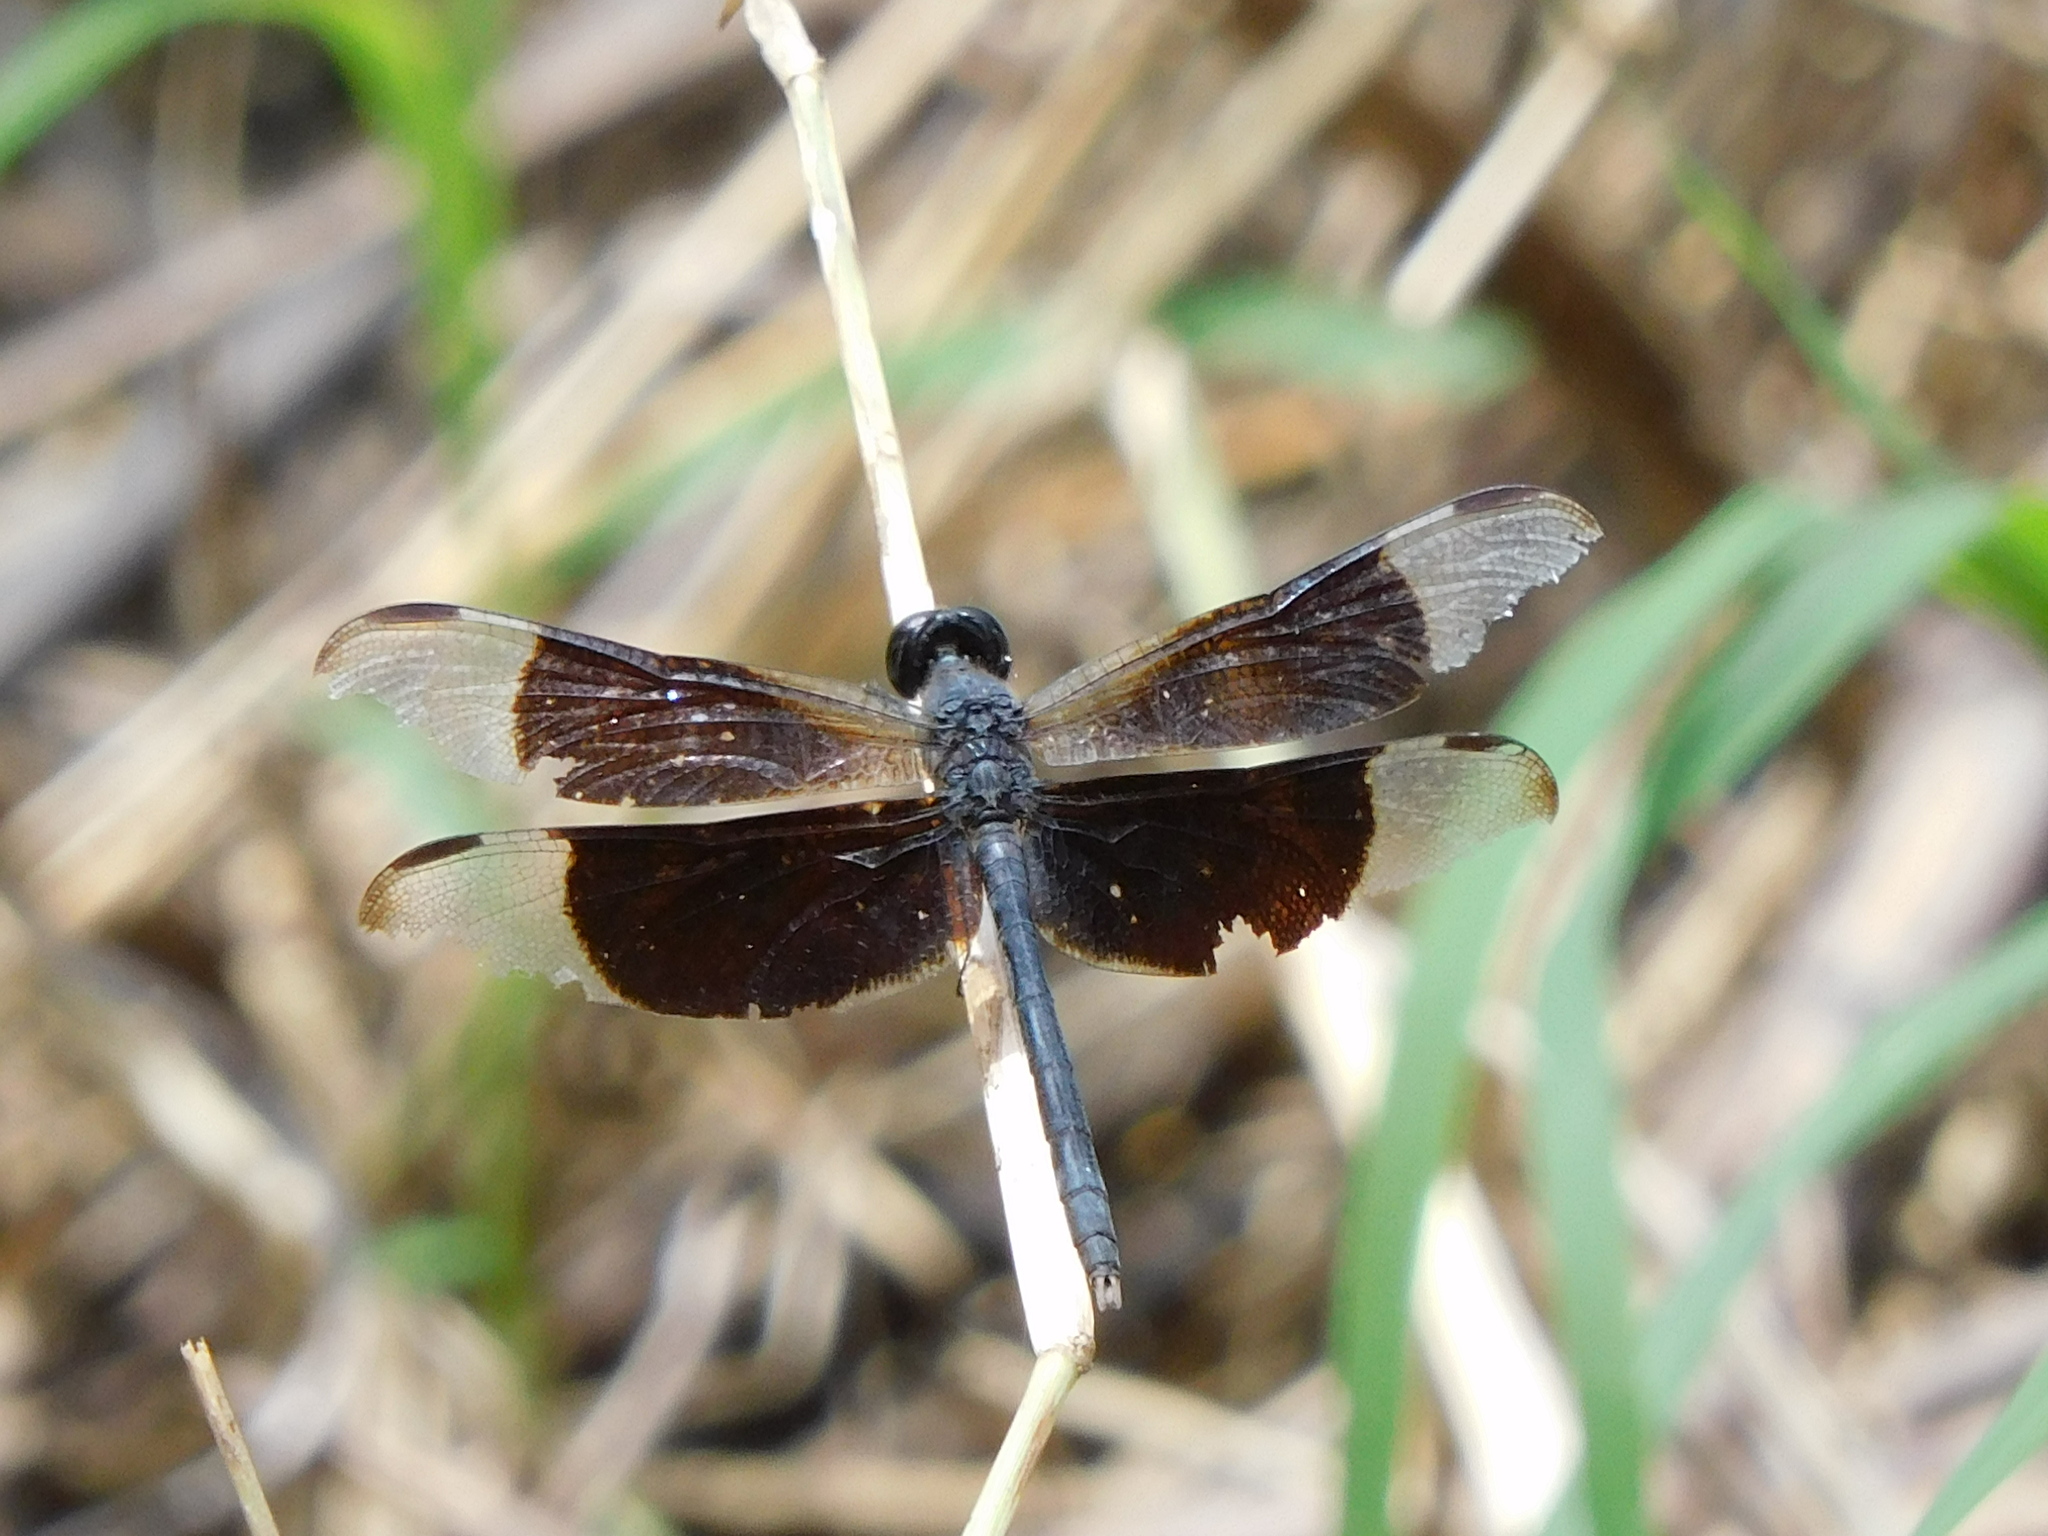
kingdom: Animalia
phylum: Arthropoda
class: Insecta
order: Odonata
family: Libellulidae
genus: Erythrodiplax
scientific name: Erythrodiplax funerea
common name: Black-winged dragonlet
